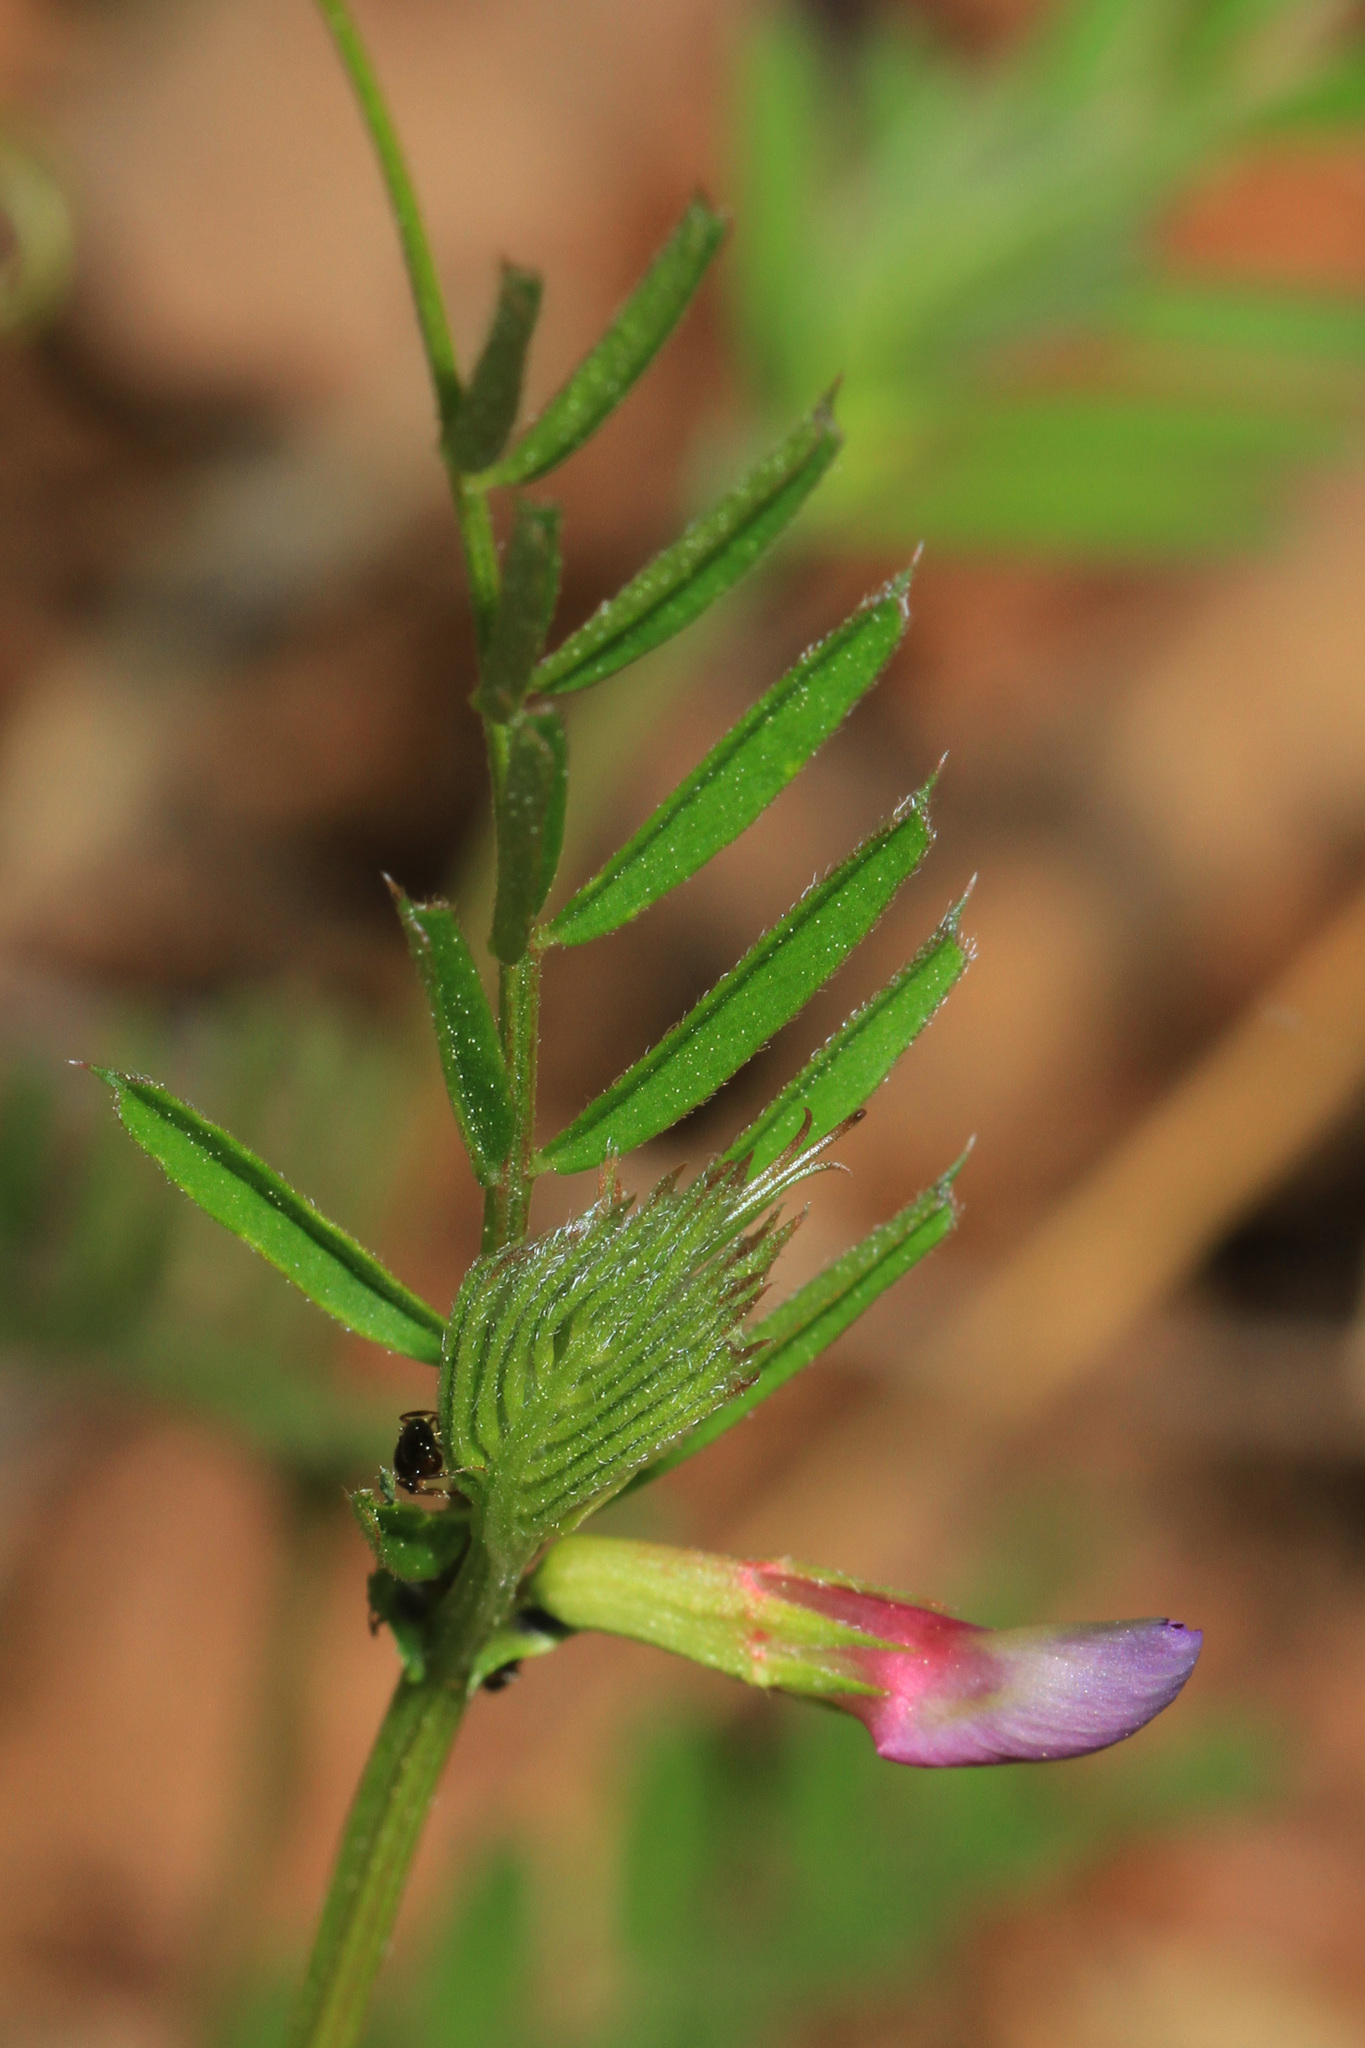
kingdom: Plantae
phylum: Tracheophyta
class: Magnoliopsida
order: Fabales
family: Fabaceae
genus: Vicia
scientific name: Vicia sativa
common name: Garden vetch
